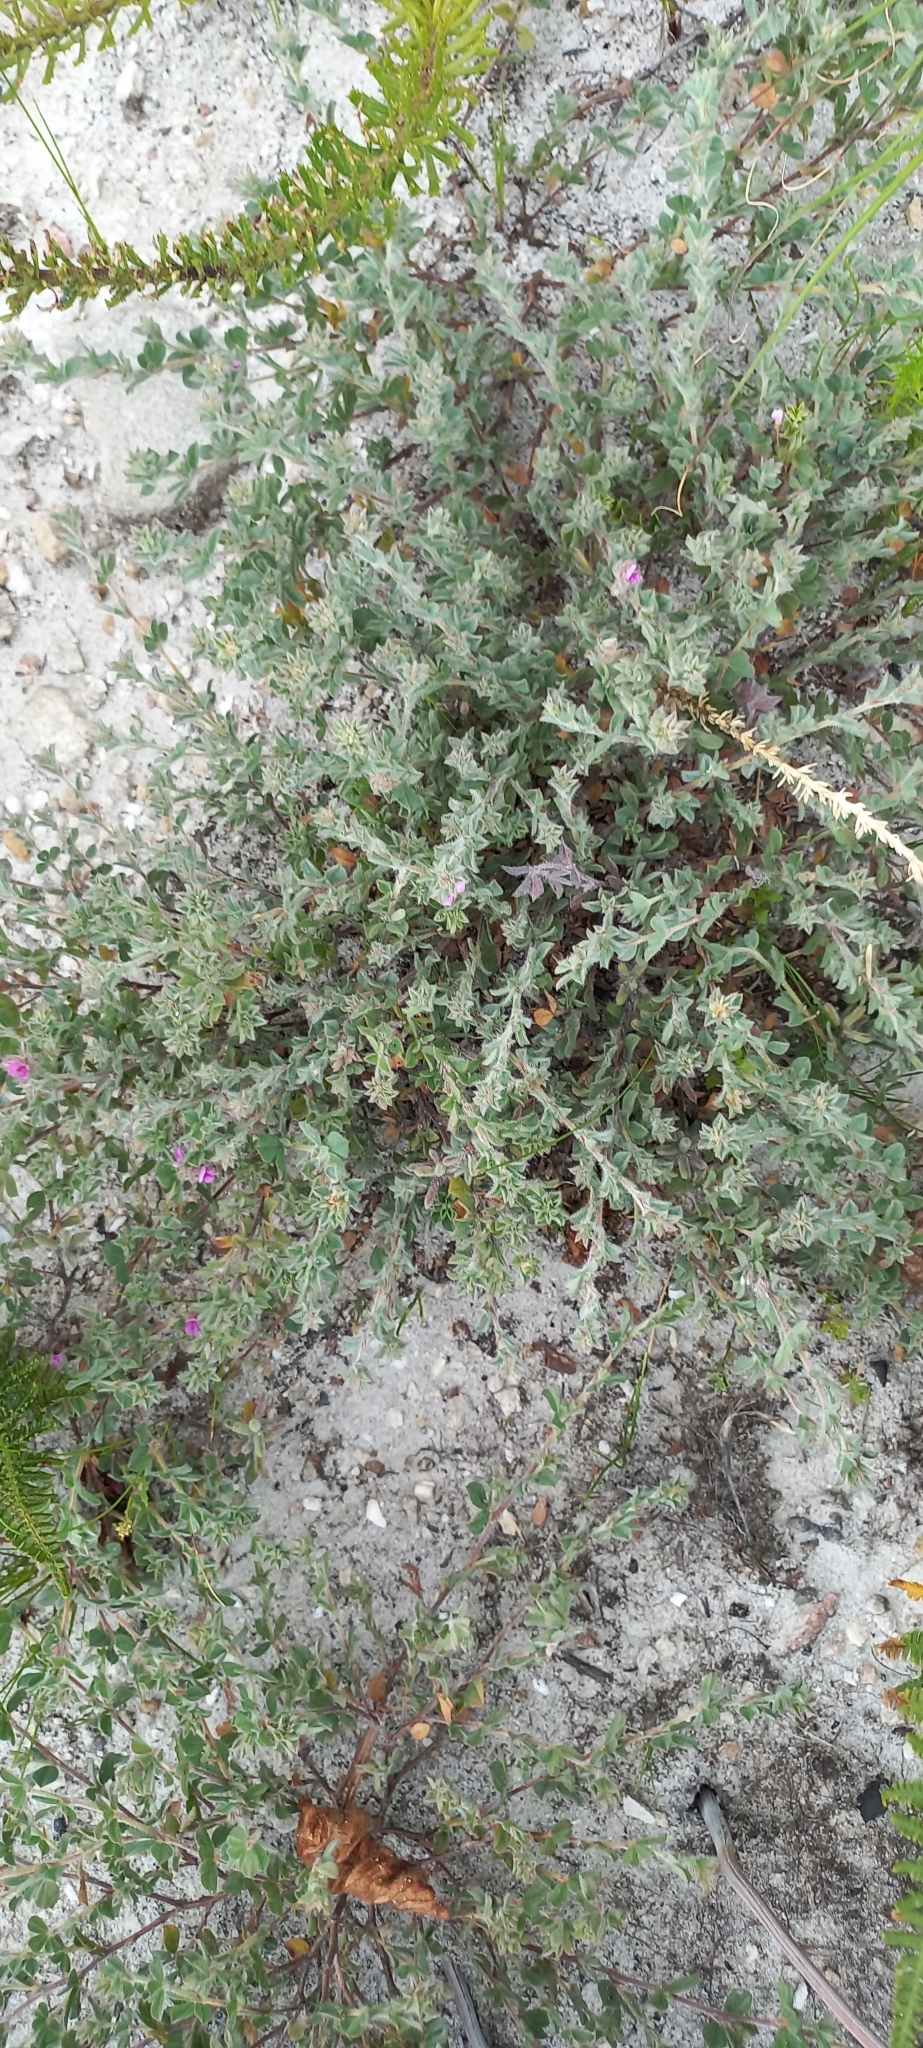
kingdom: Plantae
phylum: Tracheophyta
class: Magnoliopsida
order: Fabales
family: Fabaceae
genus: Indigofera
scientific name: Indigofera glomerata
